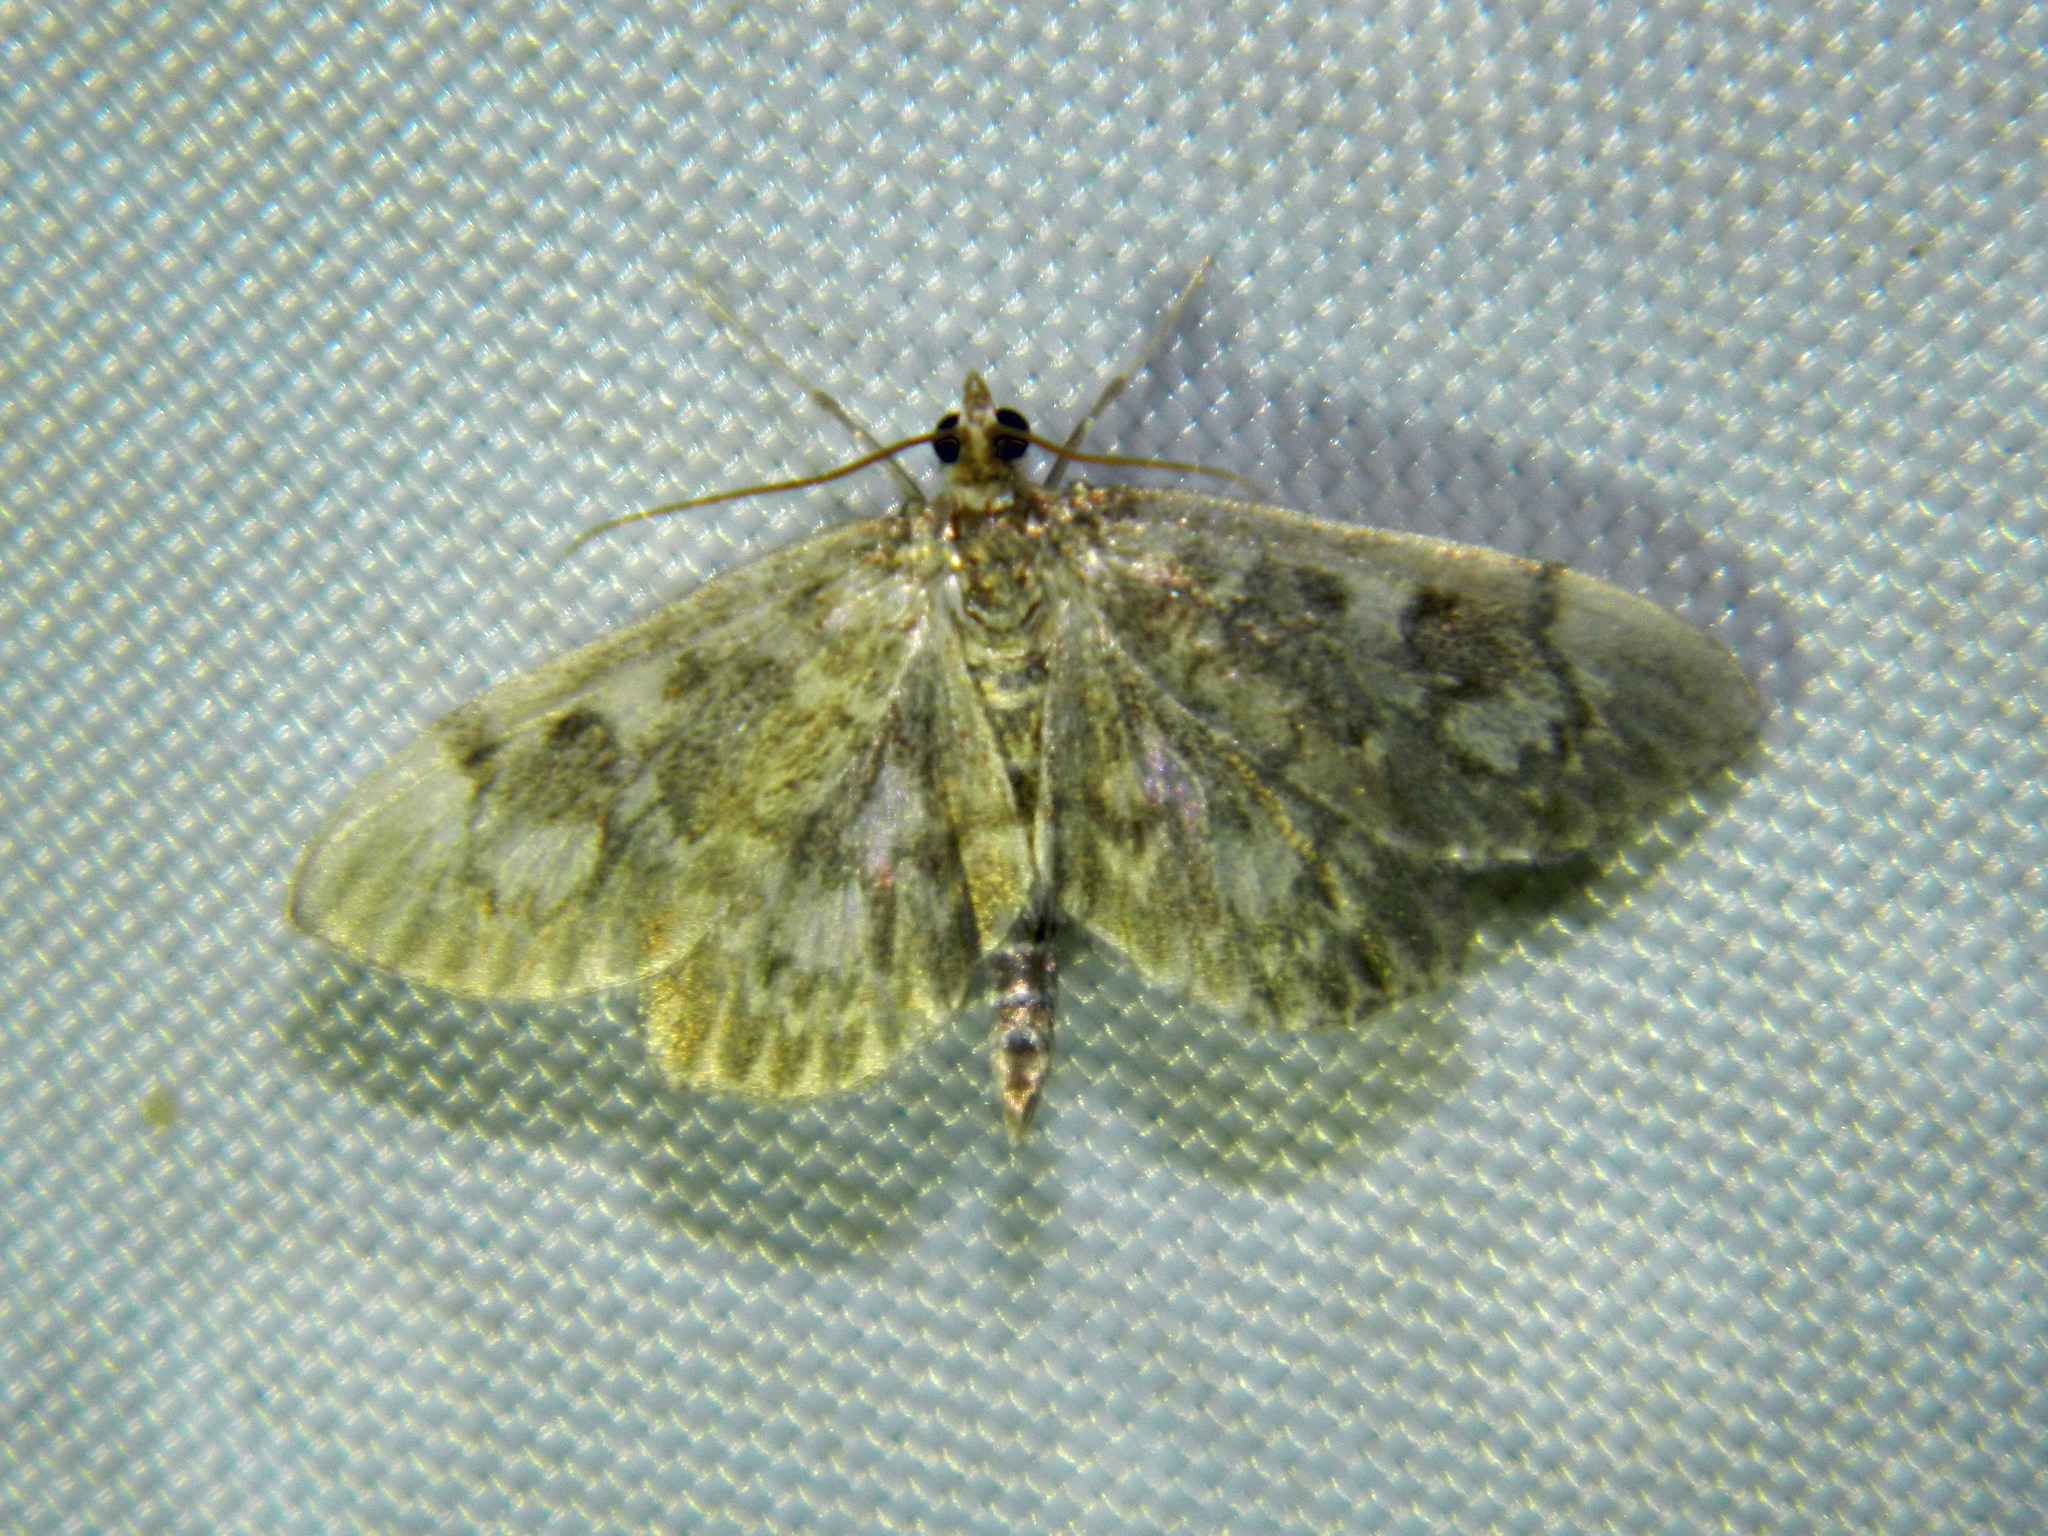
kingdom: Animalia
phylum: Arthropoda
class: Insecta
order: Lepidoptera
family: Crambidae
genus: Anania
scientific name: Anania
